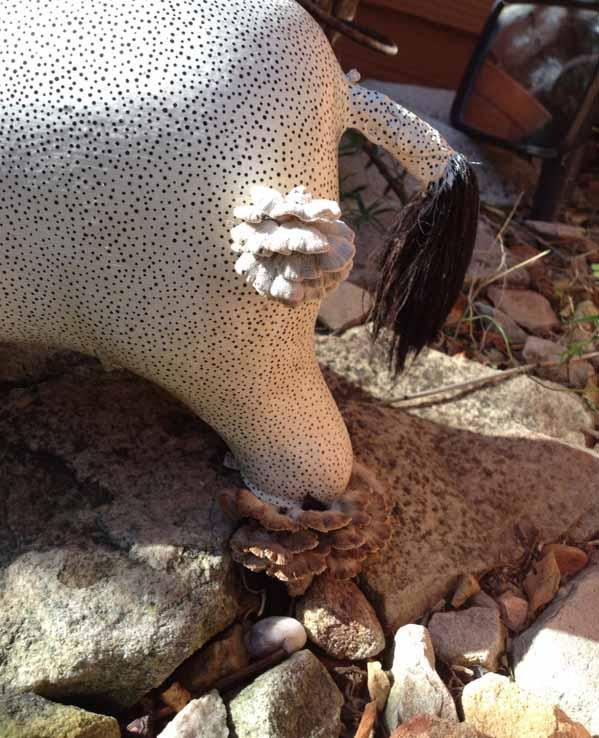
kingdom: Fungi
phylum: Basidiomycota
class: Agaricomycetes
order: Agaricales
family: Schizophyllaceae
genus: Schizophyllum
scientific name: Schizophyllum commune
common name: Common porecrust
